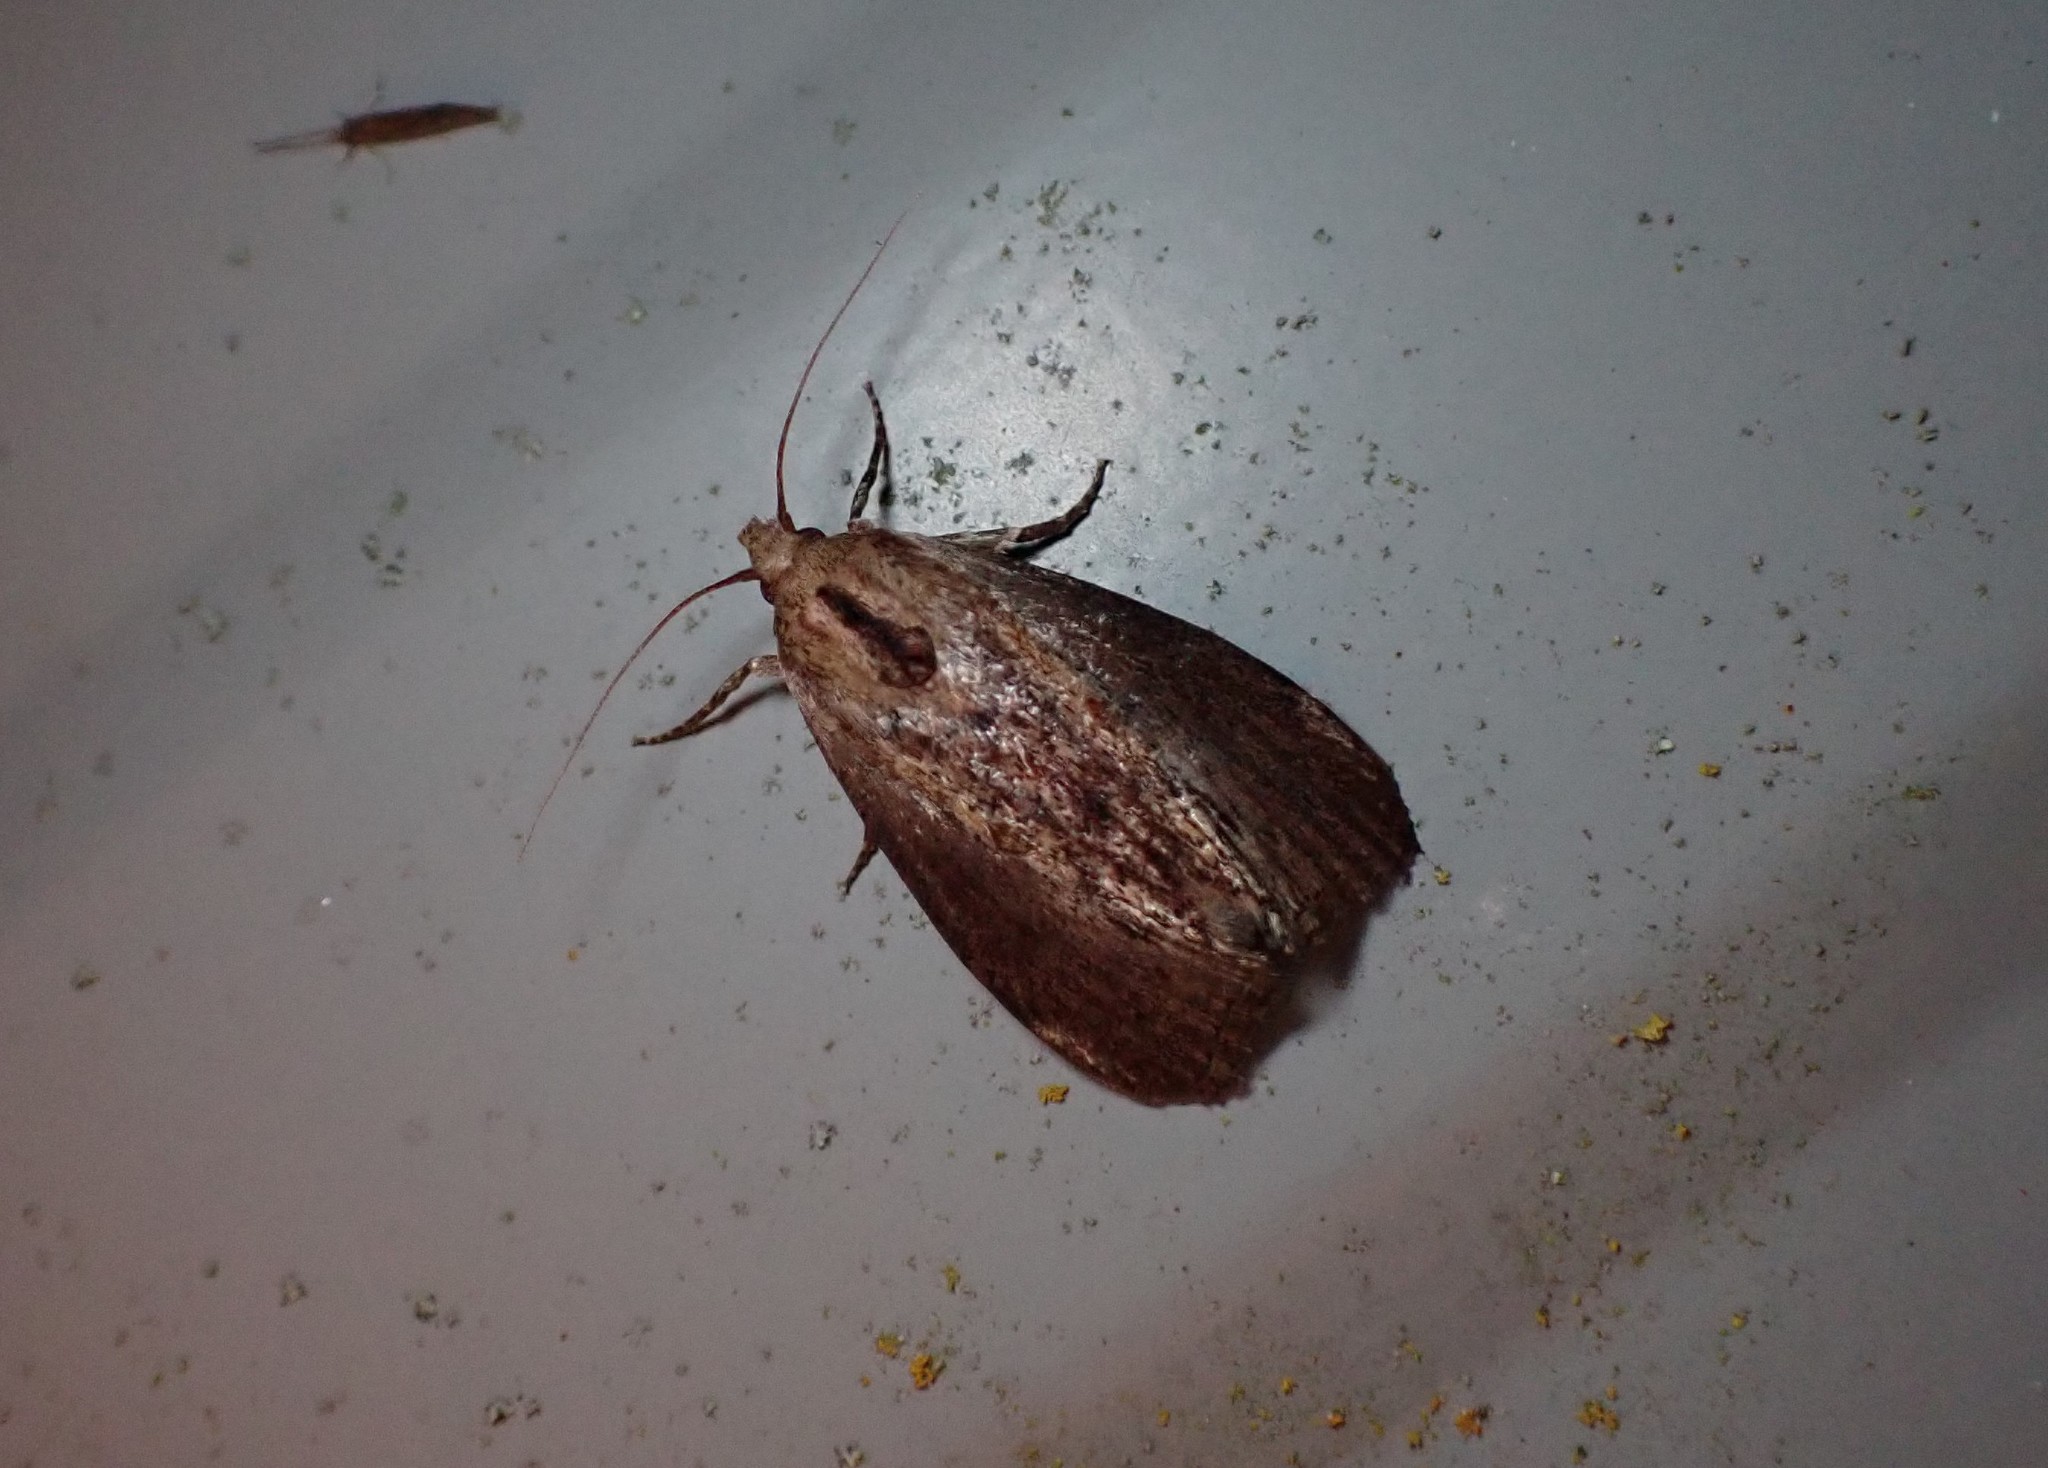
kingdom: Animalia
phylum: Arthropoda
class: Insecta
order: Lepidoptera
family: Pyralidae
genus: Galleria
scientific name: Galleria mellonella
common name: Greater wax moth
